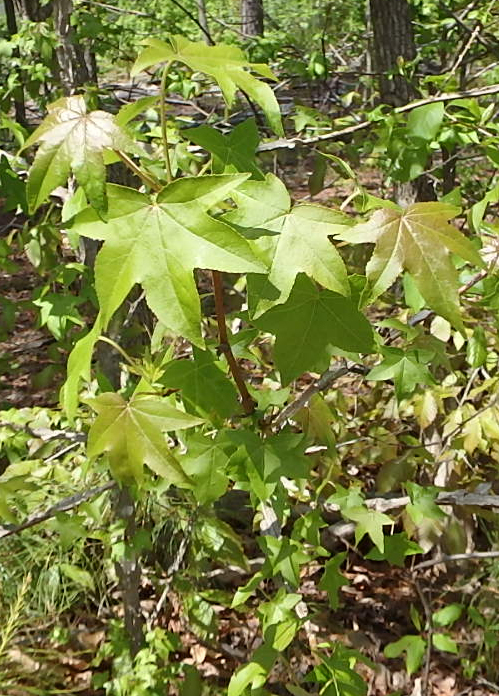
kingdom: Plantae
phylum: Tracheophyta
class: Magnoliopsida
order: Saxifragales
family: Altingiaceae
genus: Liquidambar
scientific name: Liquidambar styraciflua
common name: Sweet gum
